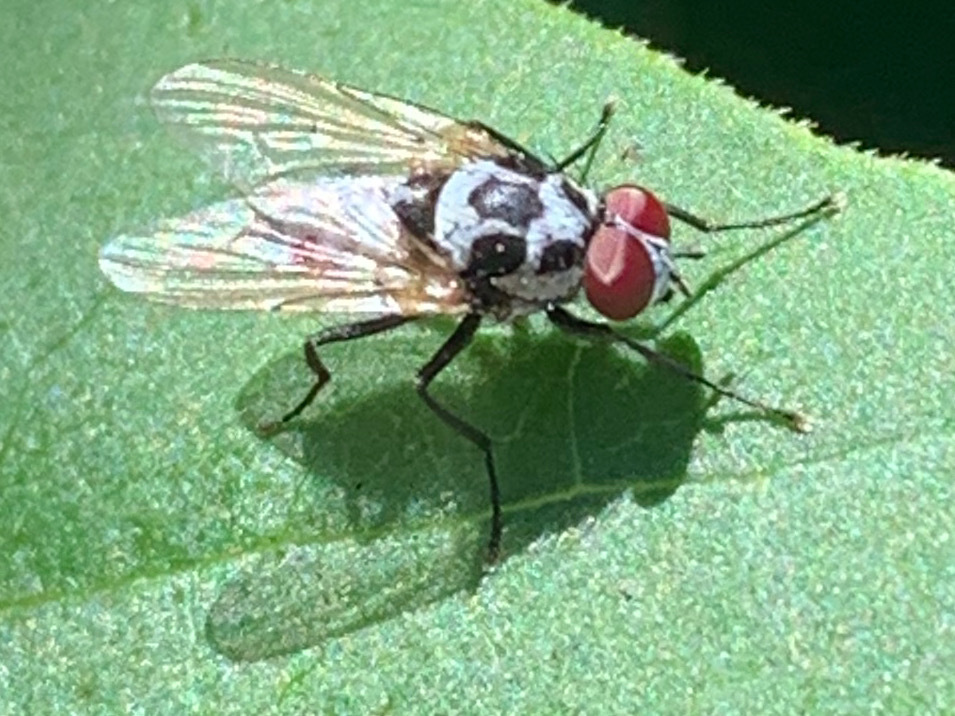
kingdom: Animalia
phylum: Arthropoda
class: Insecta
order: Diptera
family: Anthomyiidae
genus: Anthomyia
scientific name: Anthomyia procellaris
